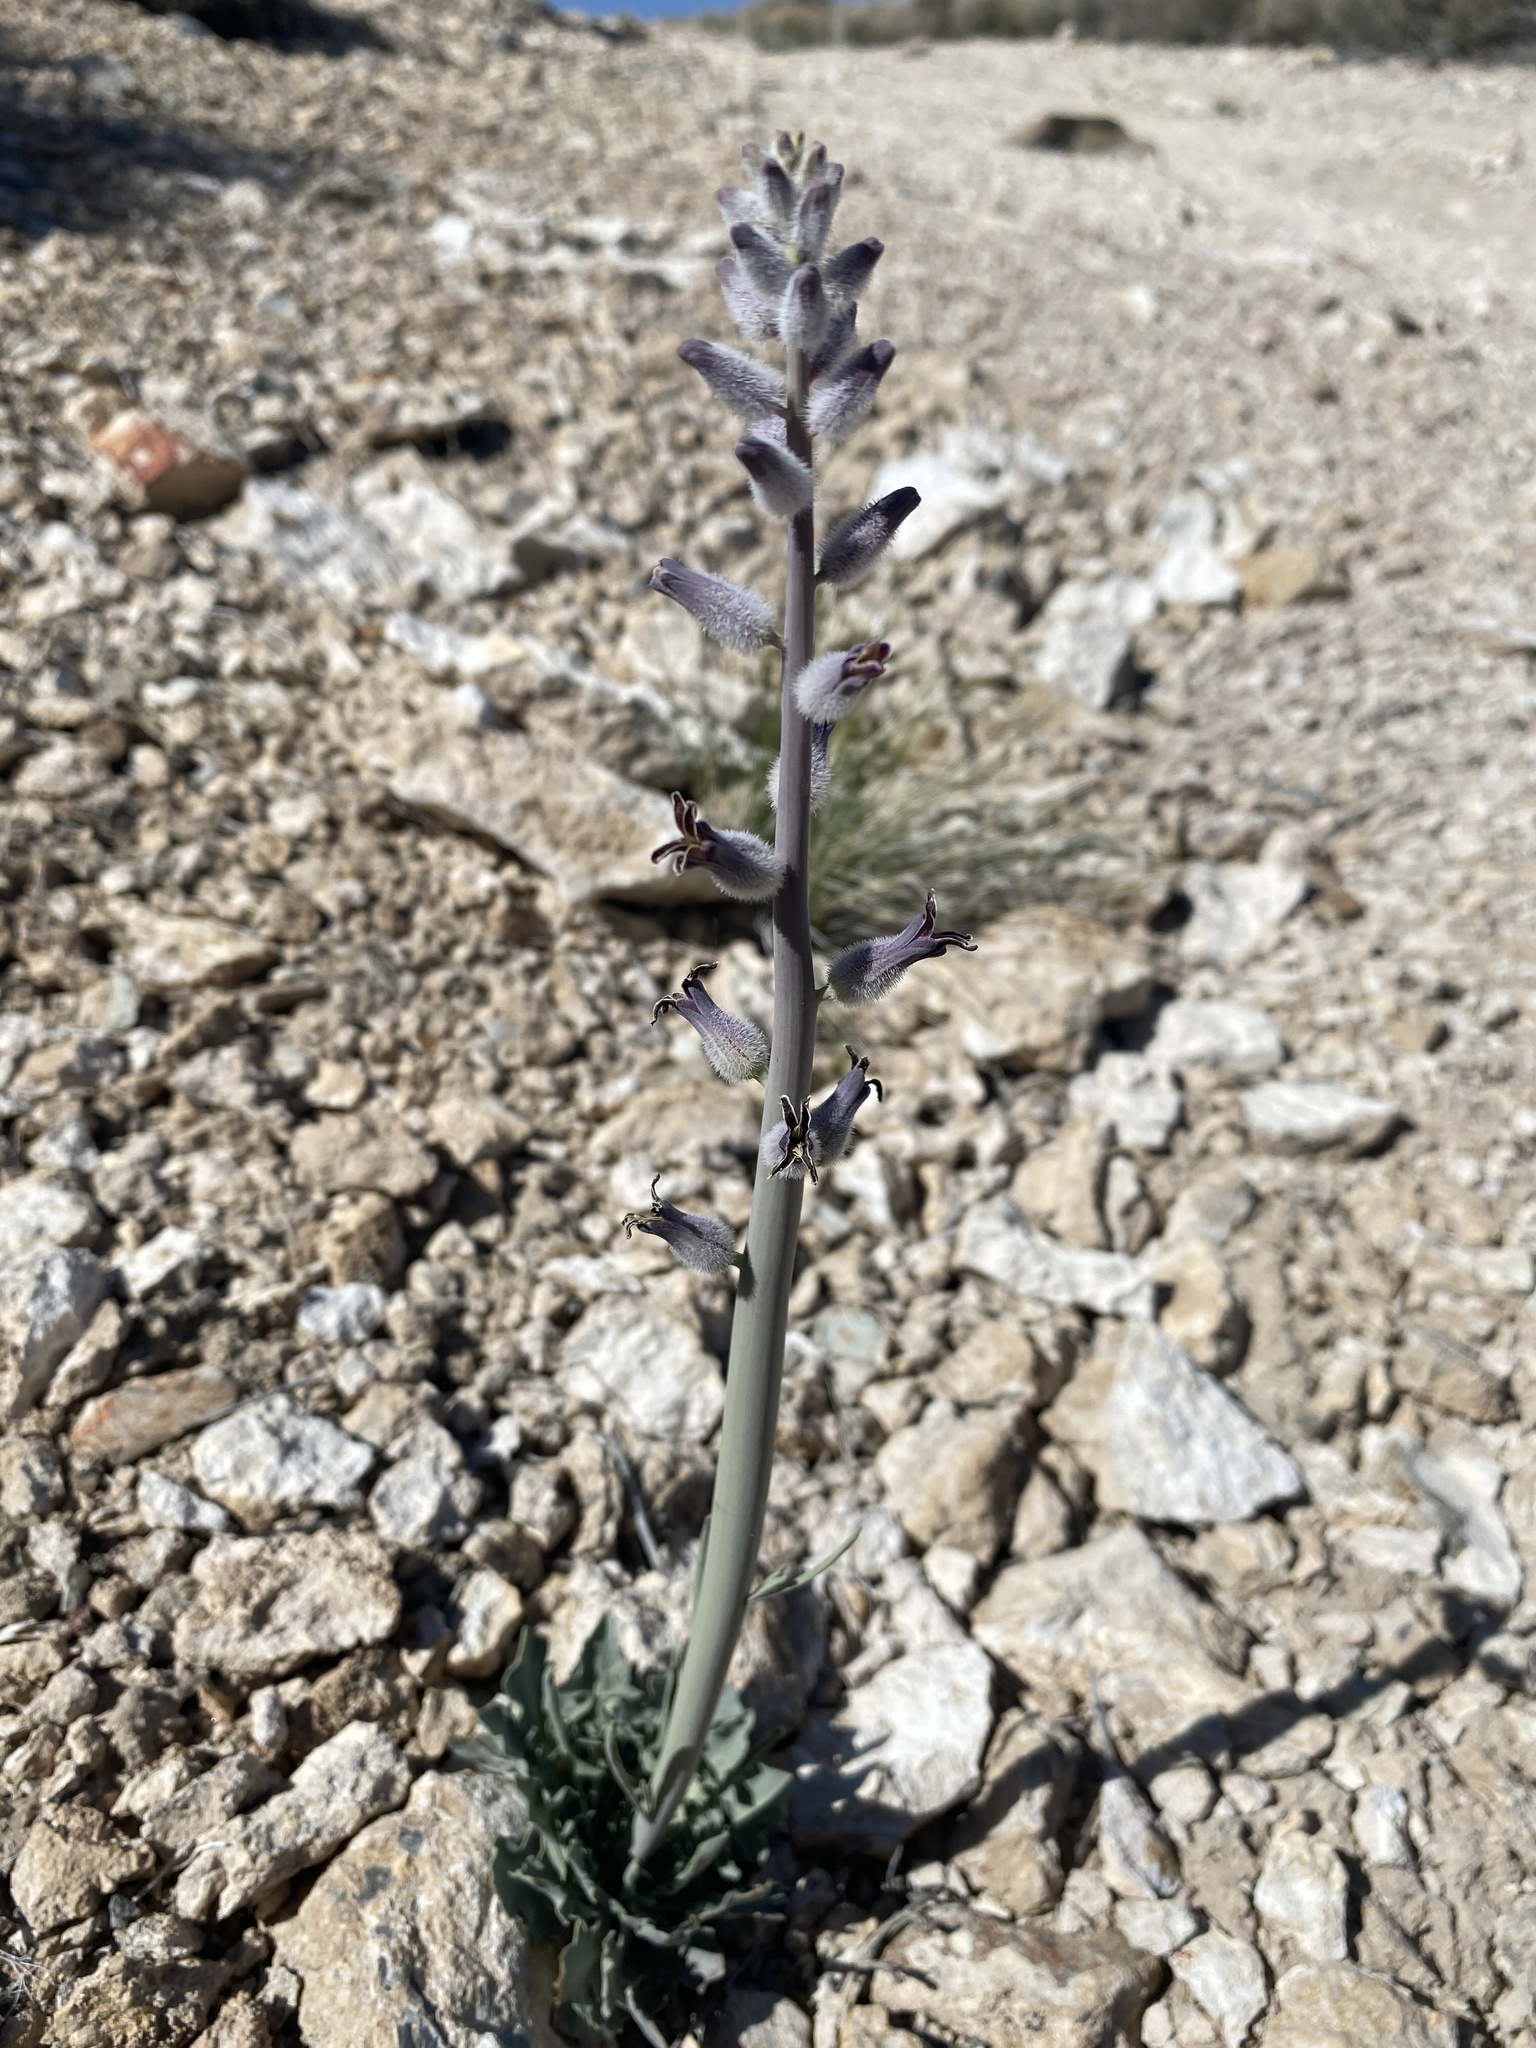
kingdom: Plantae
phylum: Tracheophyta
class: Magnoliopsida
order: Brassicales
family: Brassicaceae
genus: Streptanthus
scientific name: Streptanthus crassicaulis
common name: Thick-stem wild cabbage
